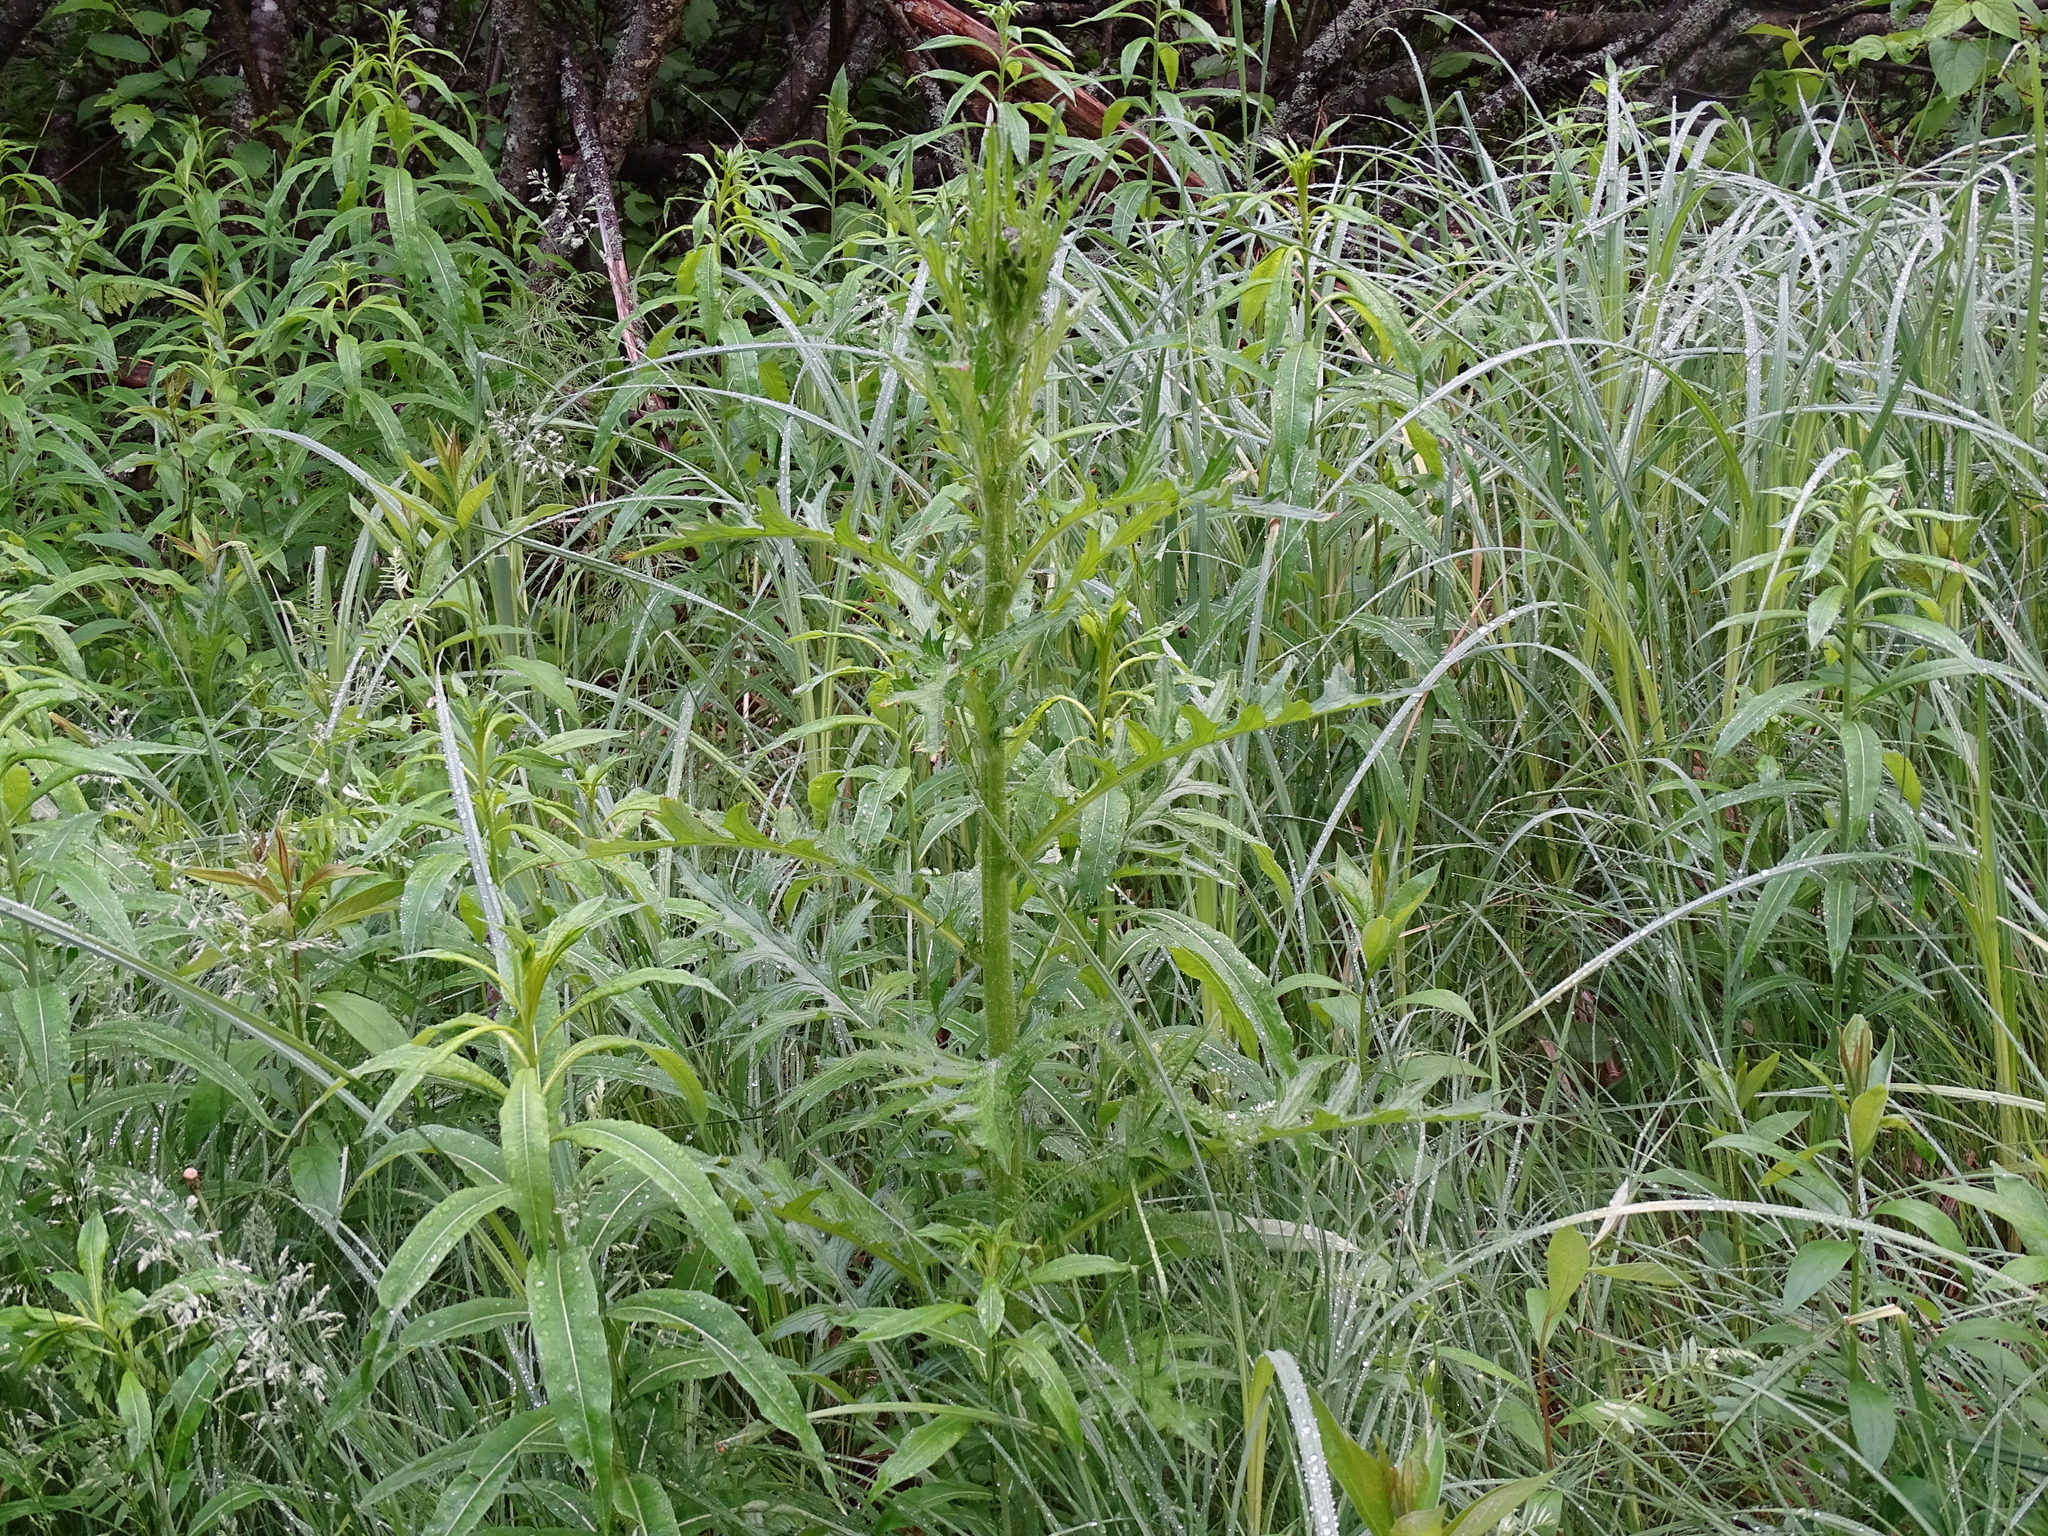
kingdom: Plantae
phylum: Tracheophyta
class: Magnoliopsida
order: Asterales
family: Asteraceae
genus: Cirsium
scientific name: Cirsium muticum
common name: Dunce-nettle
